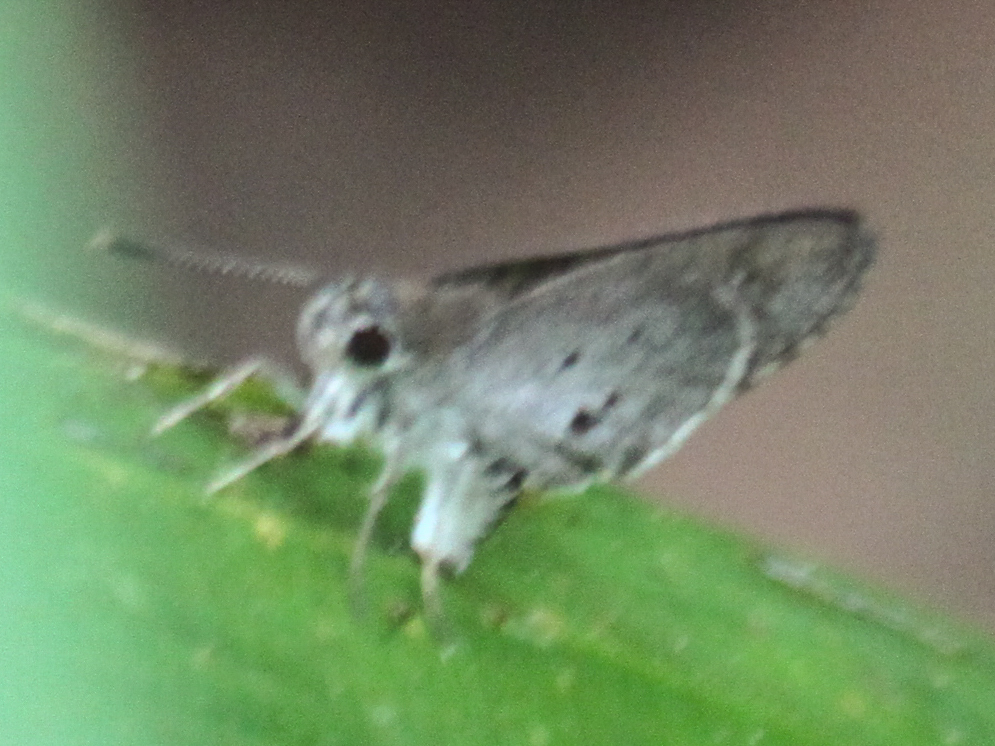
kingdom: Animalia
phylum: Arthropoda
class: Insecta
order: Lepidoptera
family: Hesperiidae
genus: Suastus
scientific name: Suastus minuta
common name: Small palm bob
